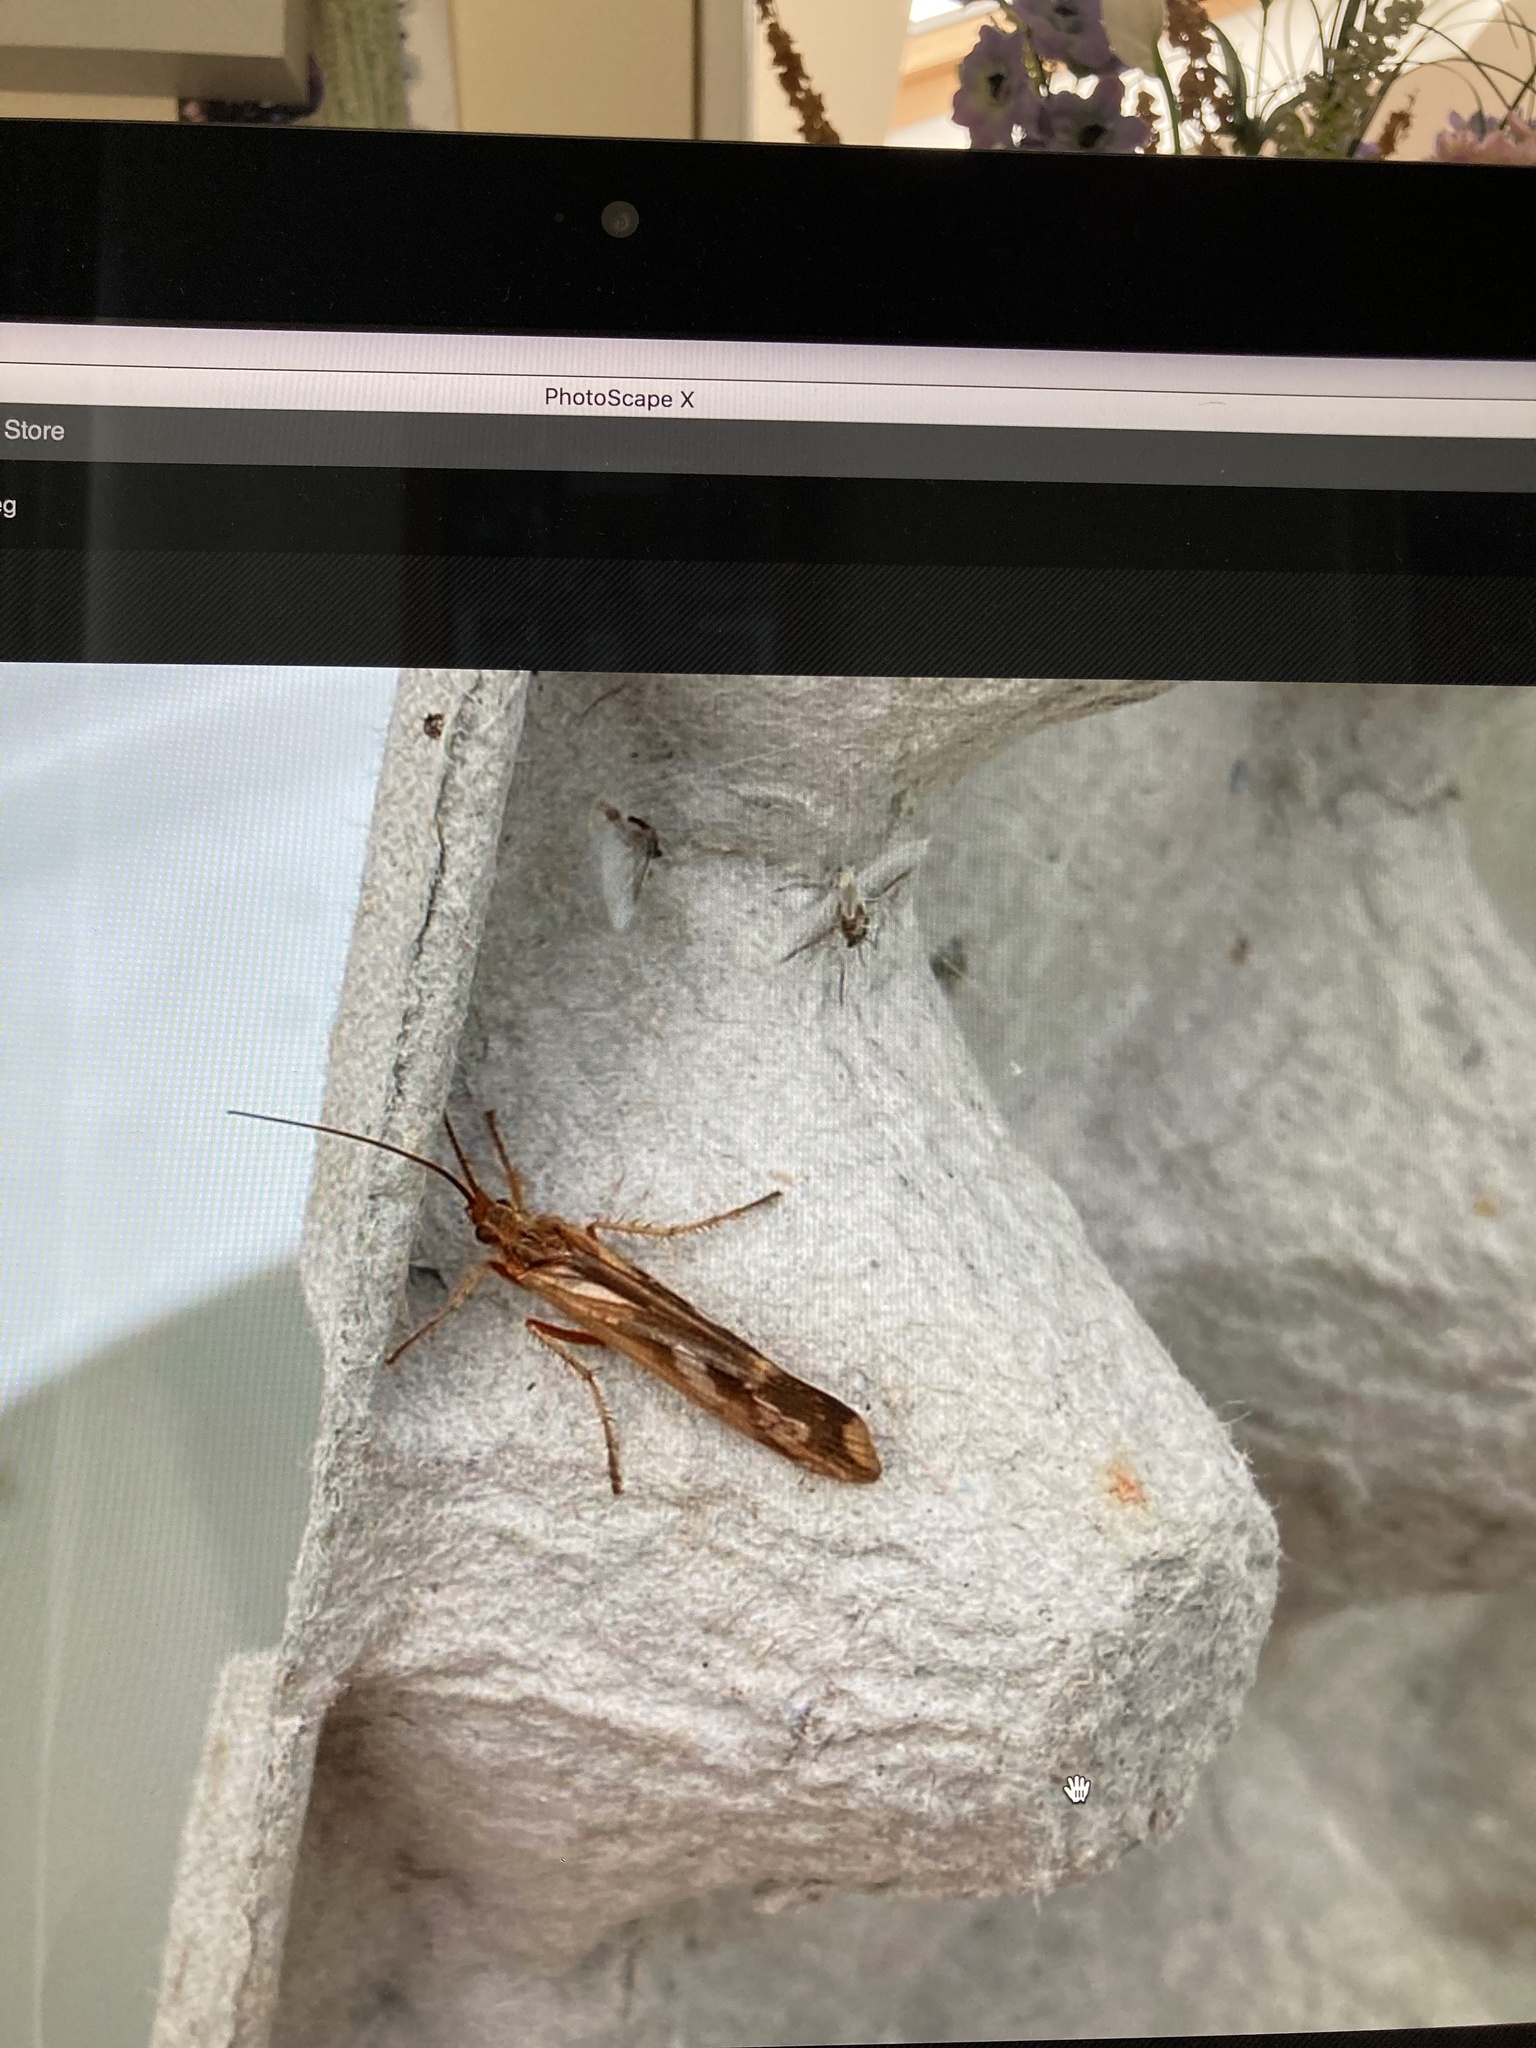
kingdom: Animalia
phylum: Arthropoda
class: Insecta
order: Trichoptera
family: Limnephilidae
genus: Limnephilus
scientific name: Limnephilus lunatus
